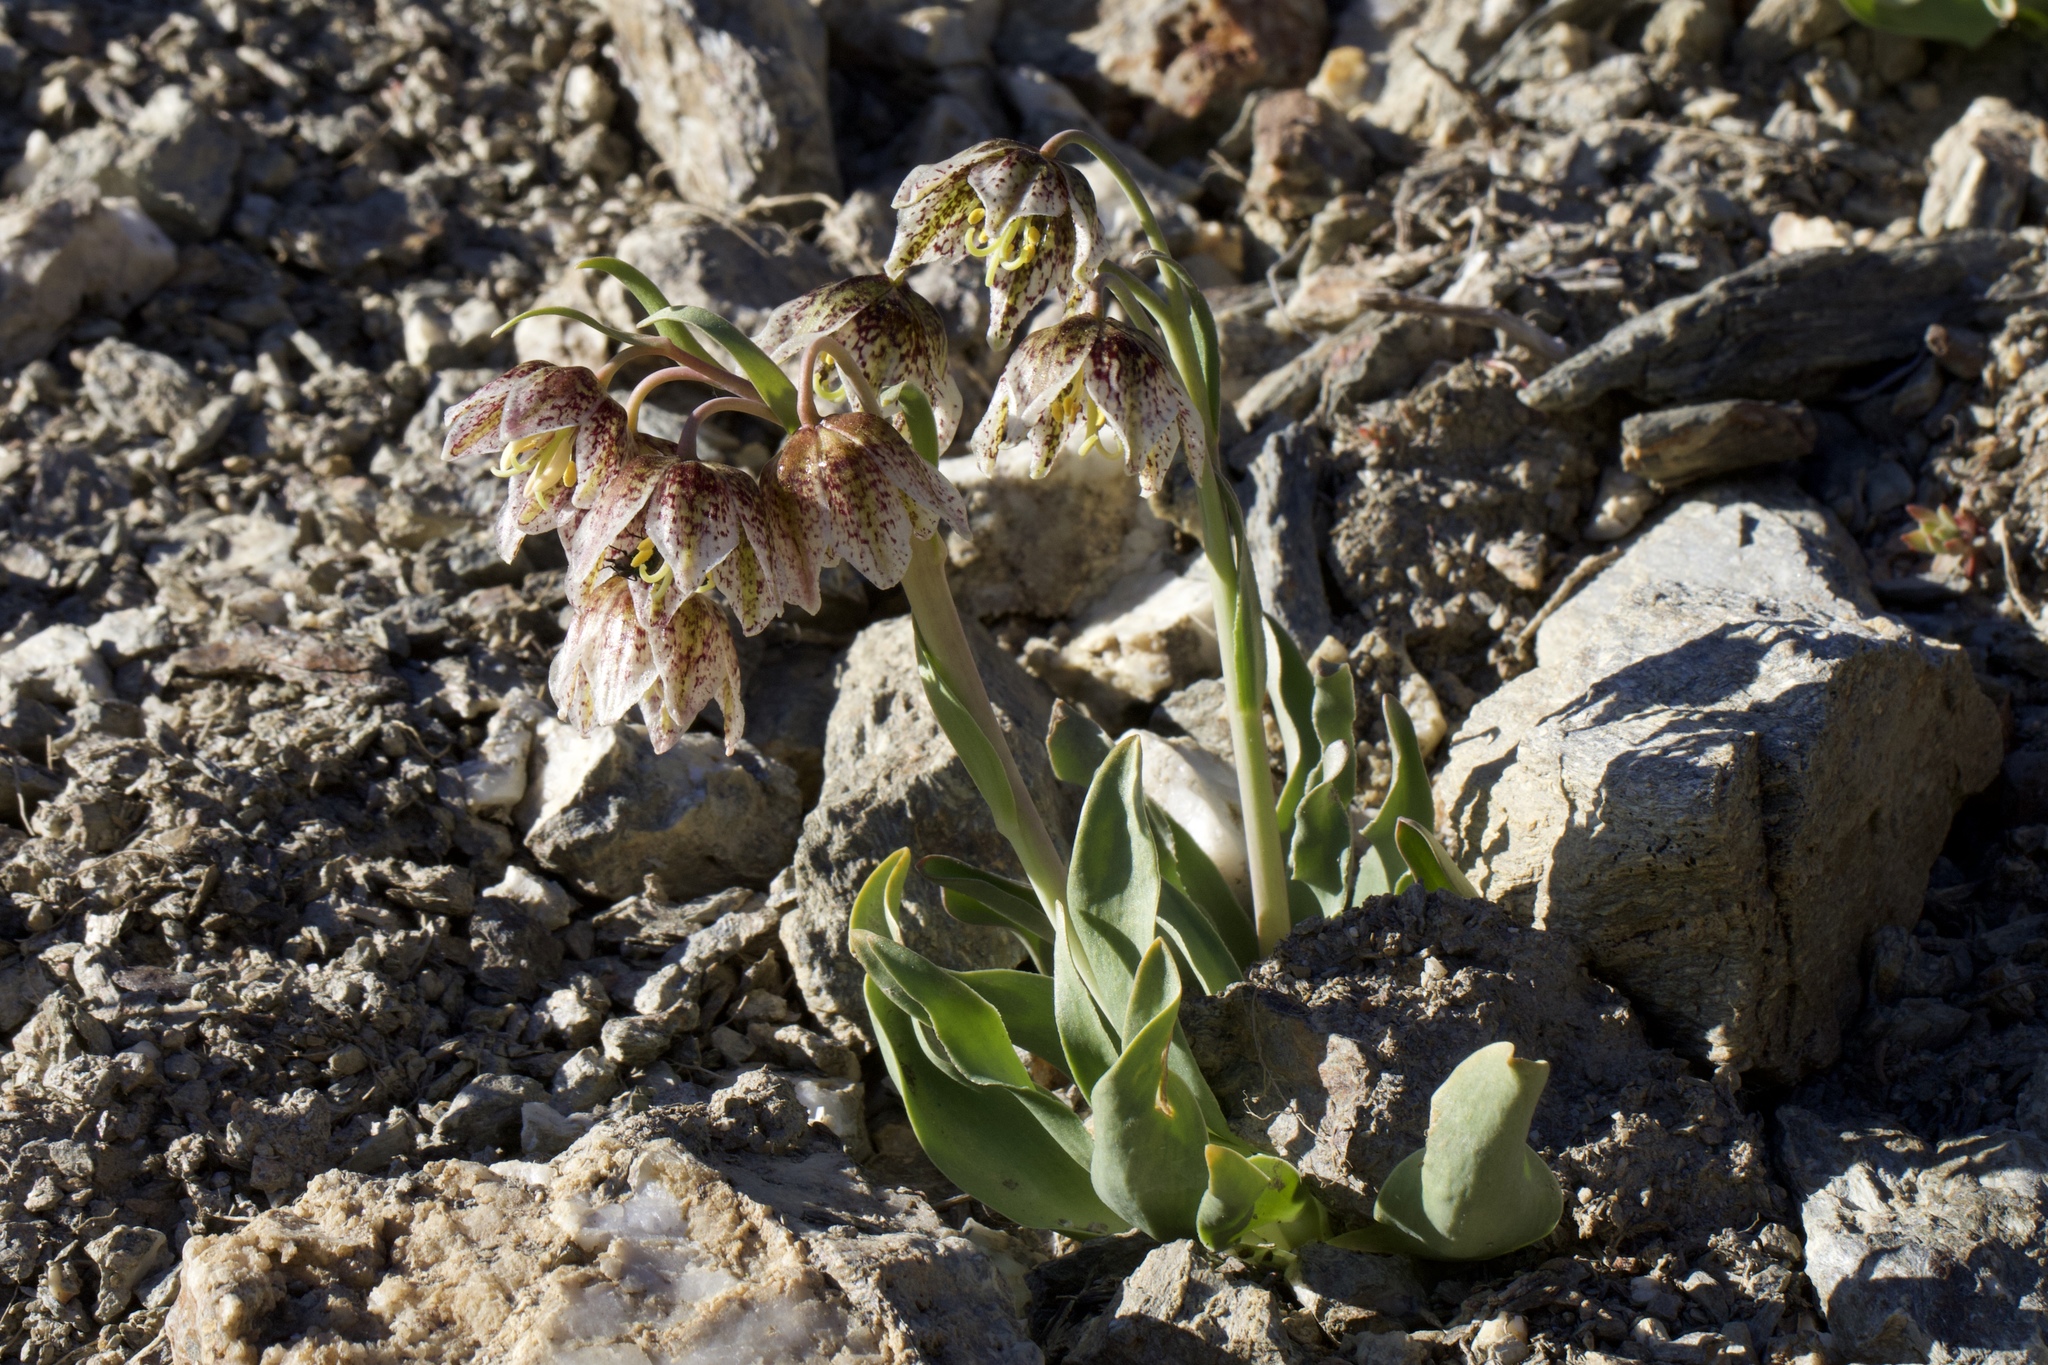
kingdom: Plantae
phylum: Tracheophyta
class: Liliopsida
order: Liliales
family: Liliaceae
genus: Fritillaria
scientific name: Fritillaria purdyi
